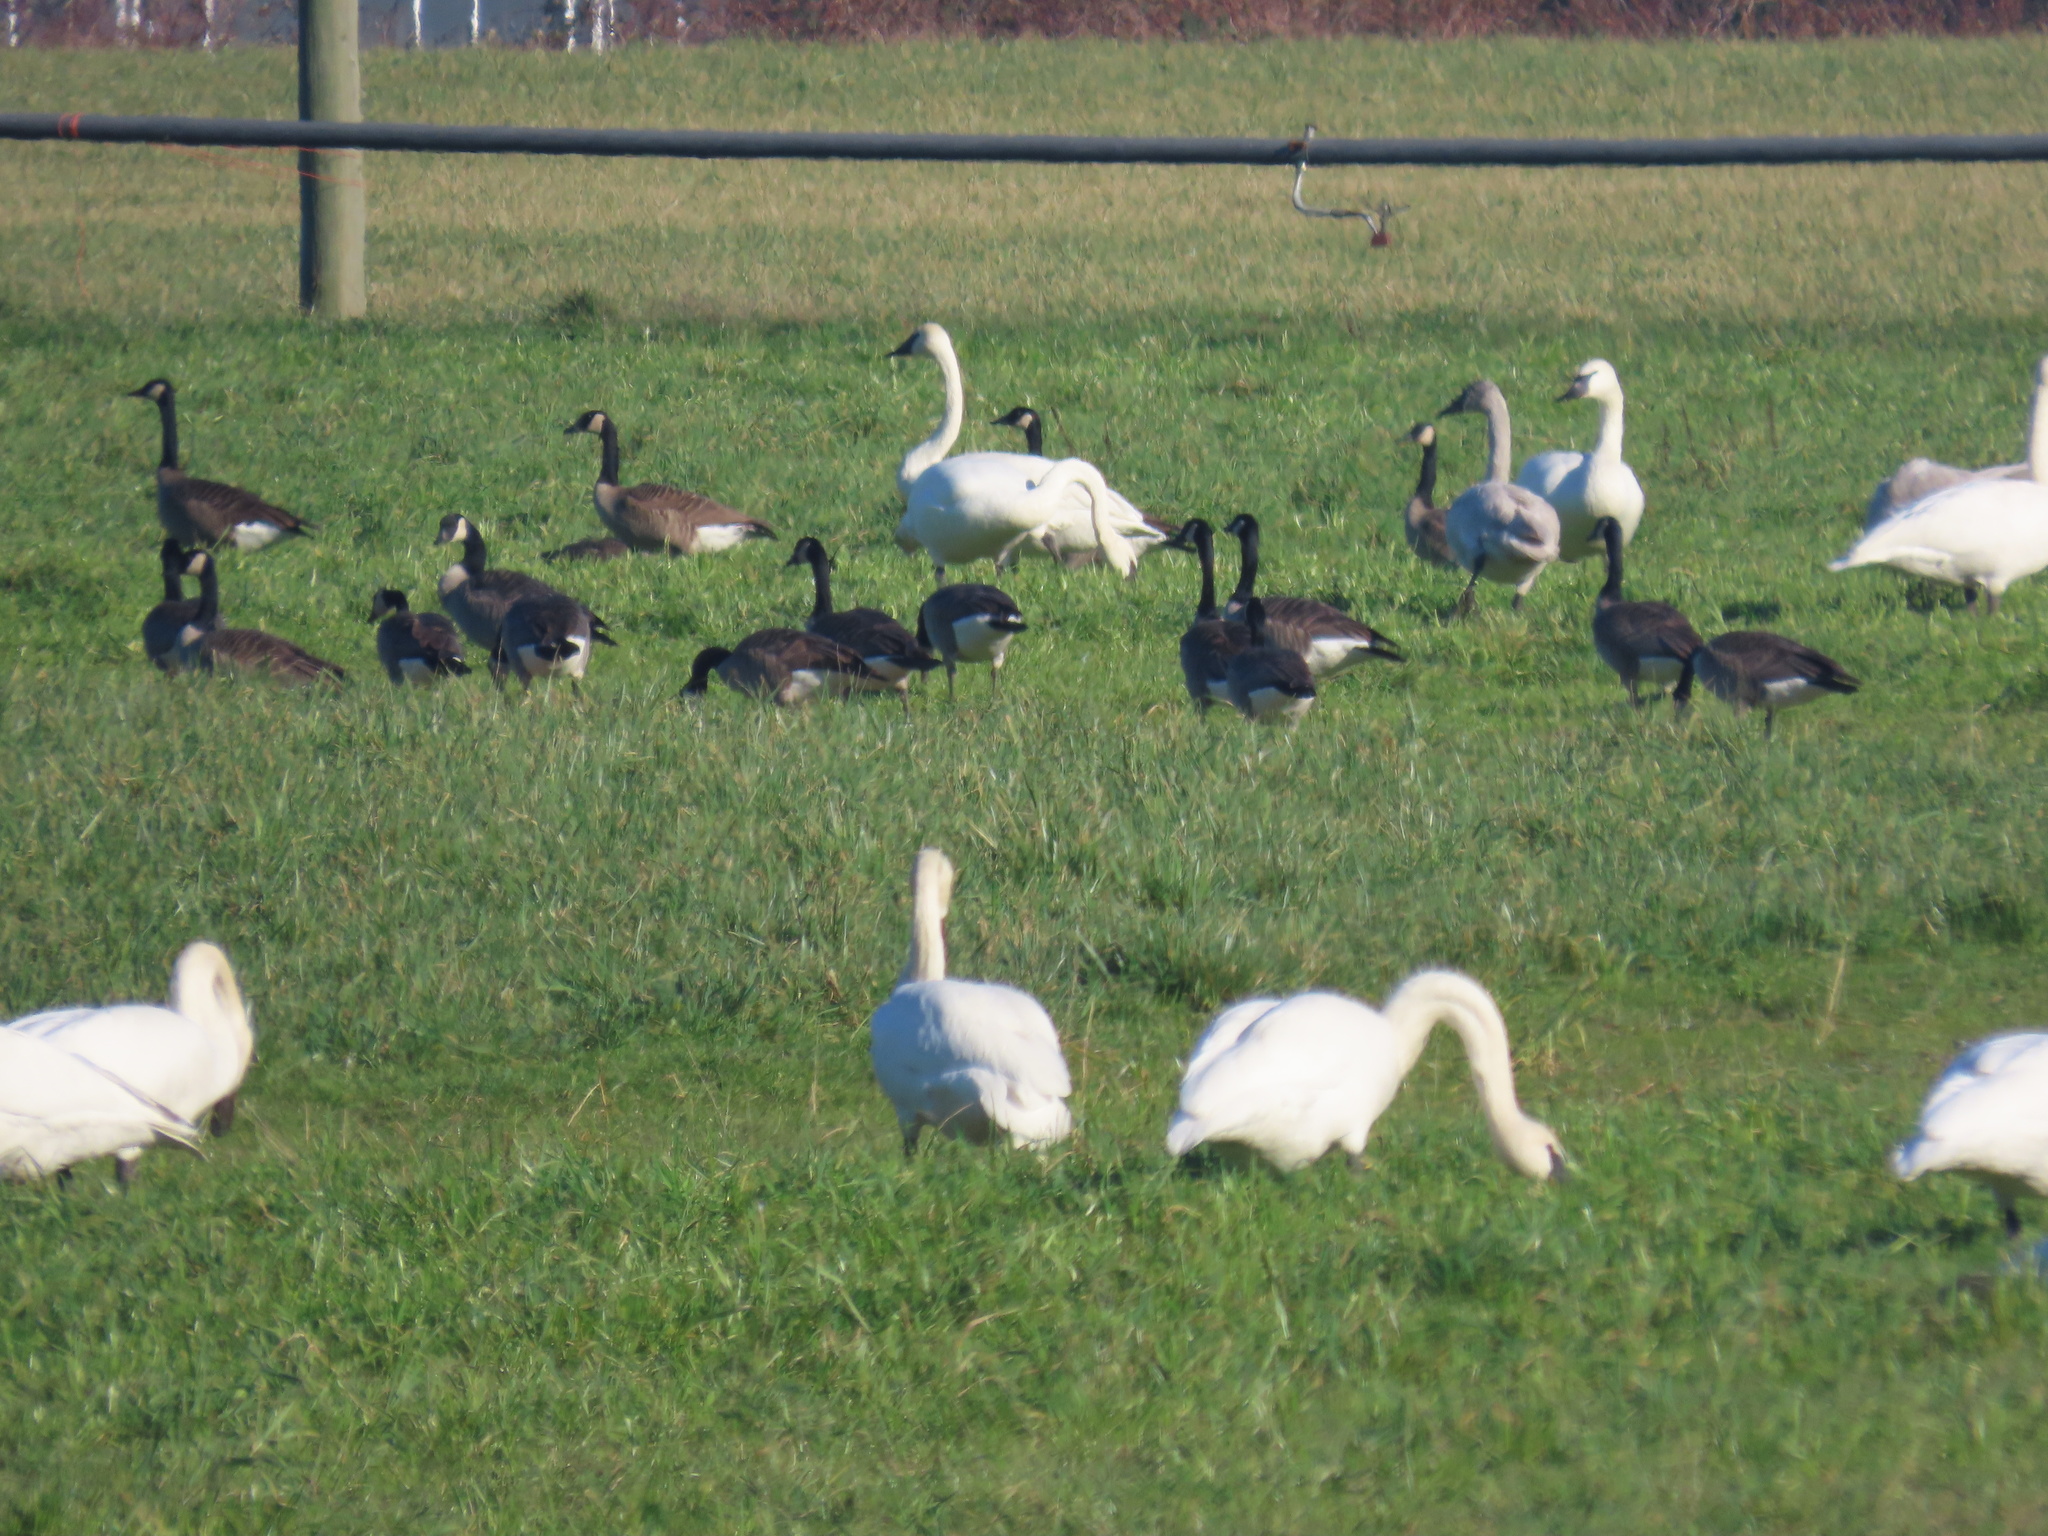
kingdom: Animalia
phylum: Chordata
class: Aves
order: Anseriformes
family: Anatidae
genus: Cygnus
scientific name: Cygnus buccinator
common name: Trumpeter swan
